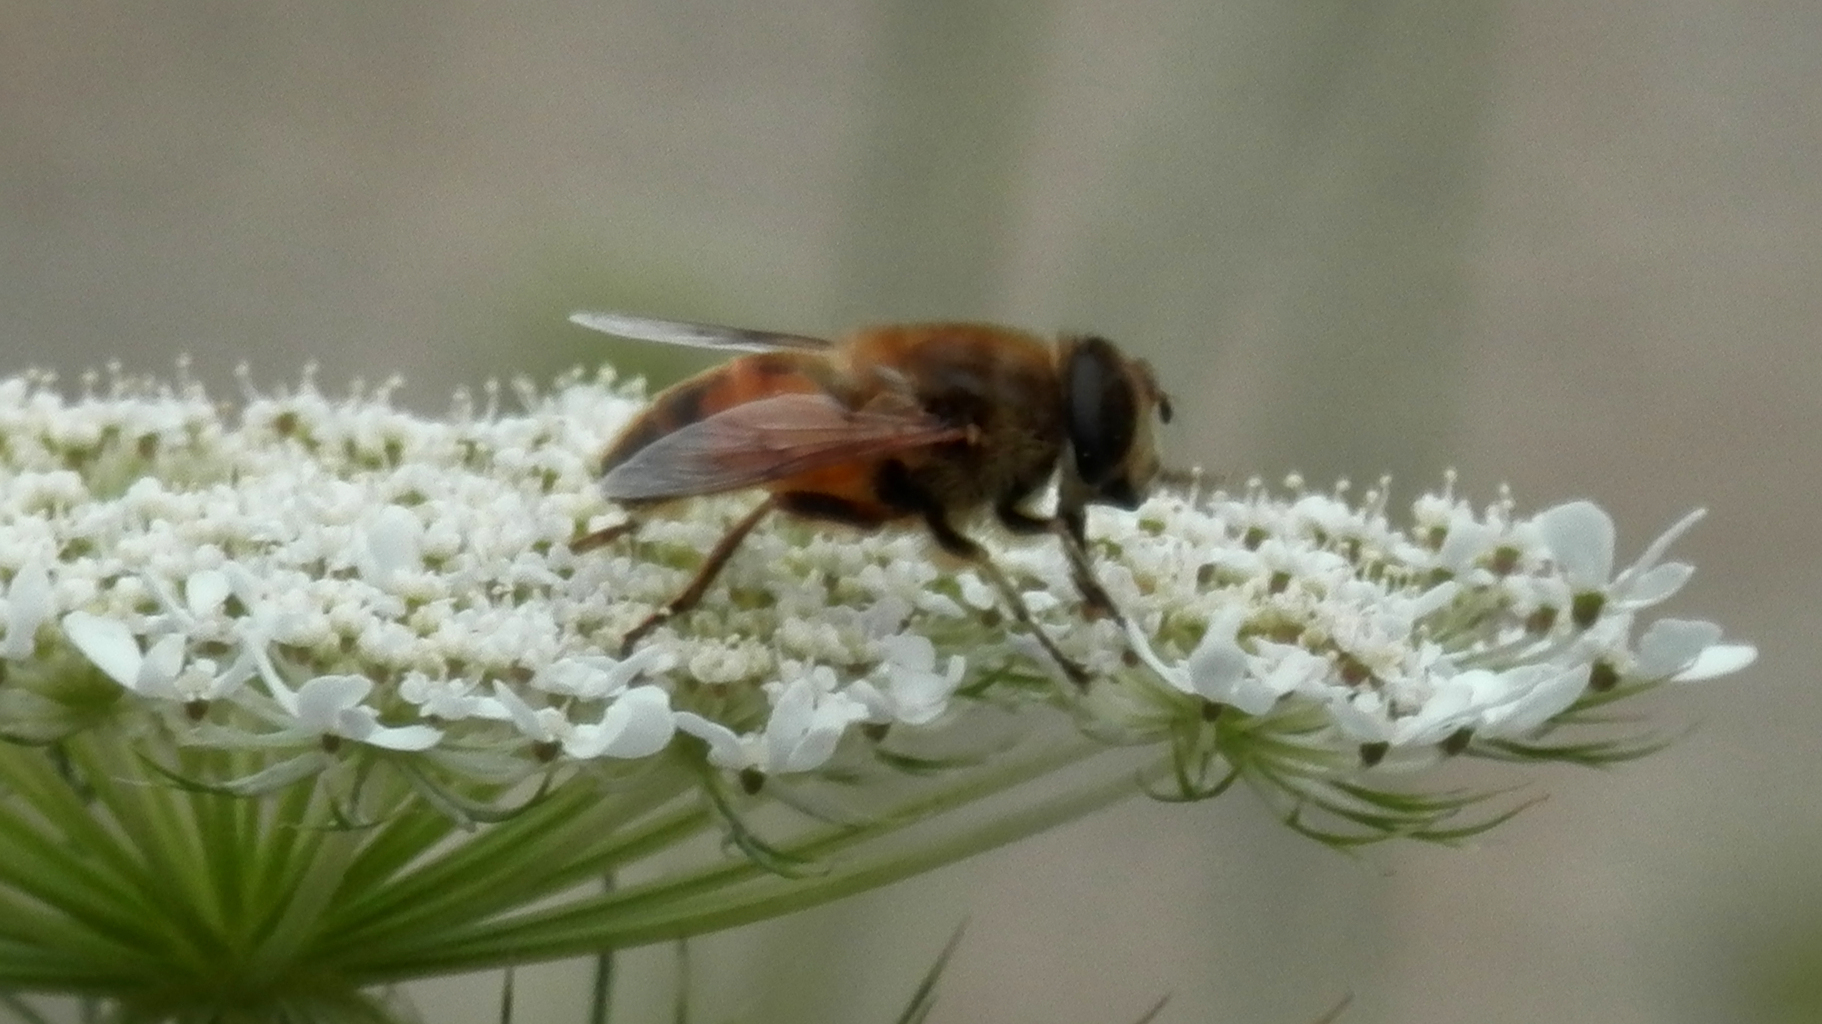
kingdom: Animalia
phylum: Arthropoda
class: Insecta
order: Diptera
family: Syrphidae
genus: Eristalis
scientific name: Eristalis tenax
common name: Drone fly
